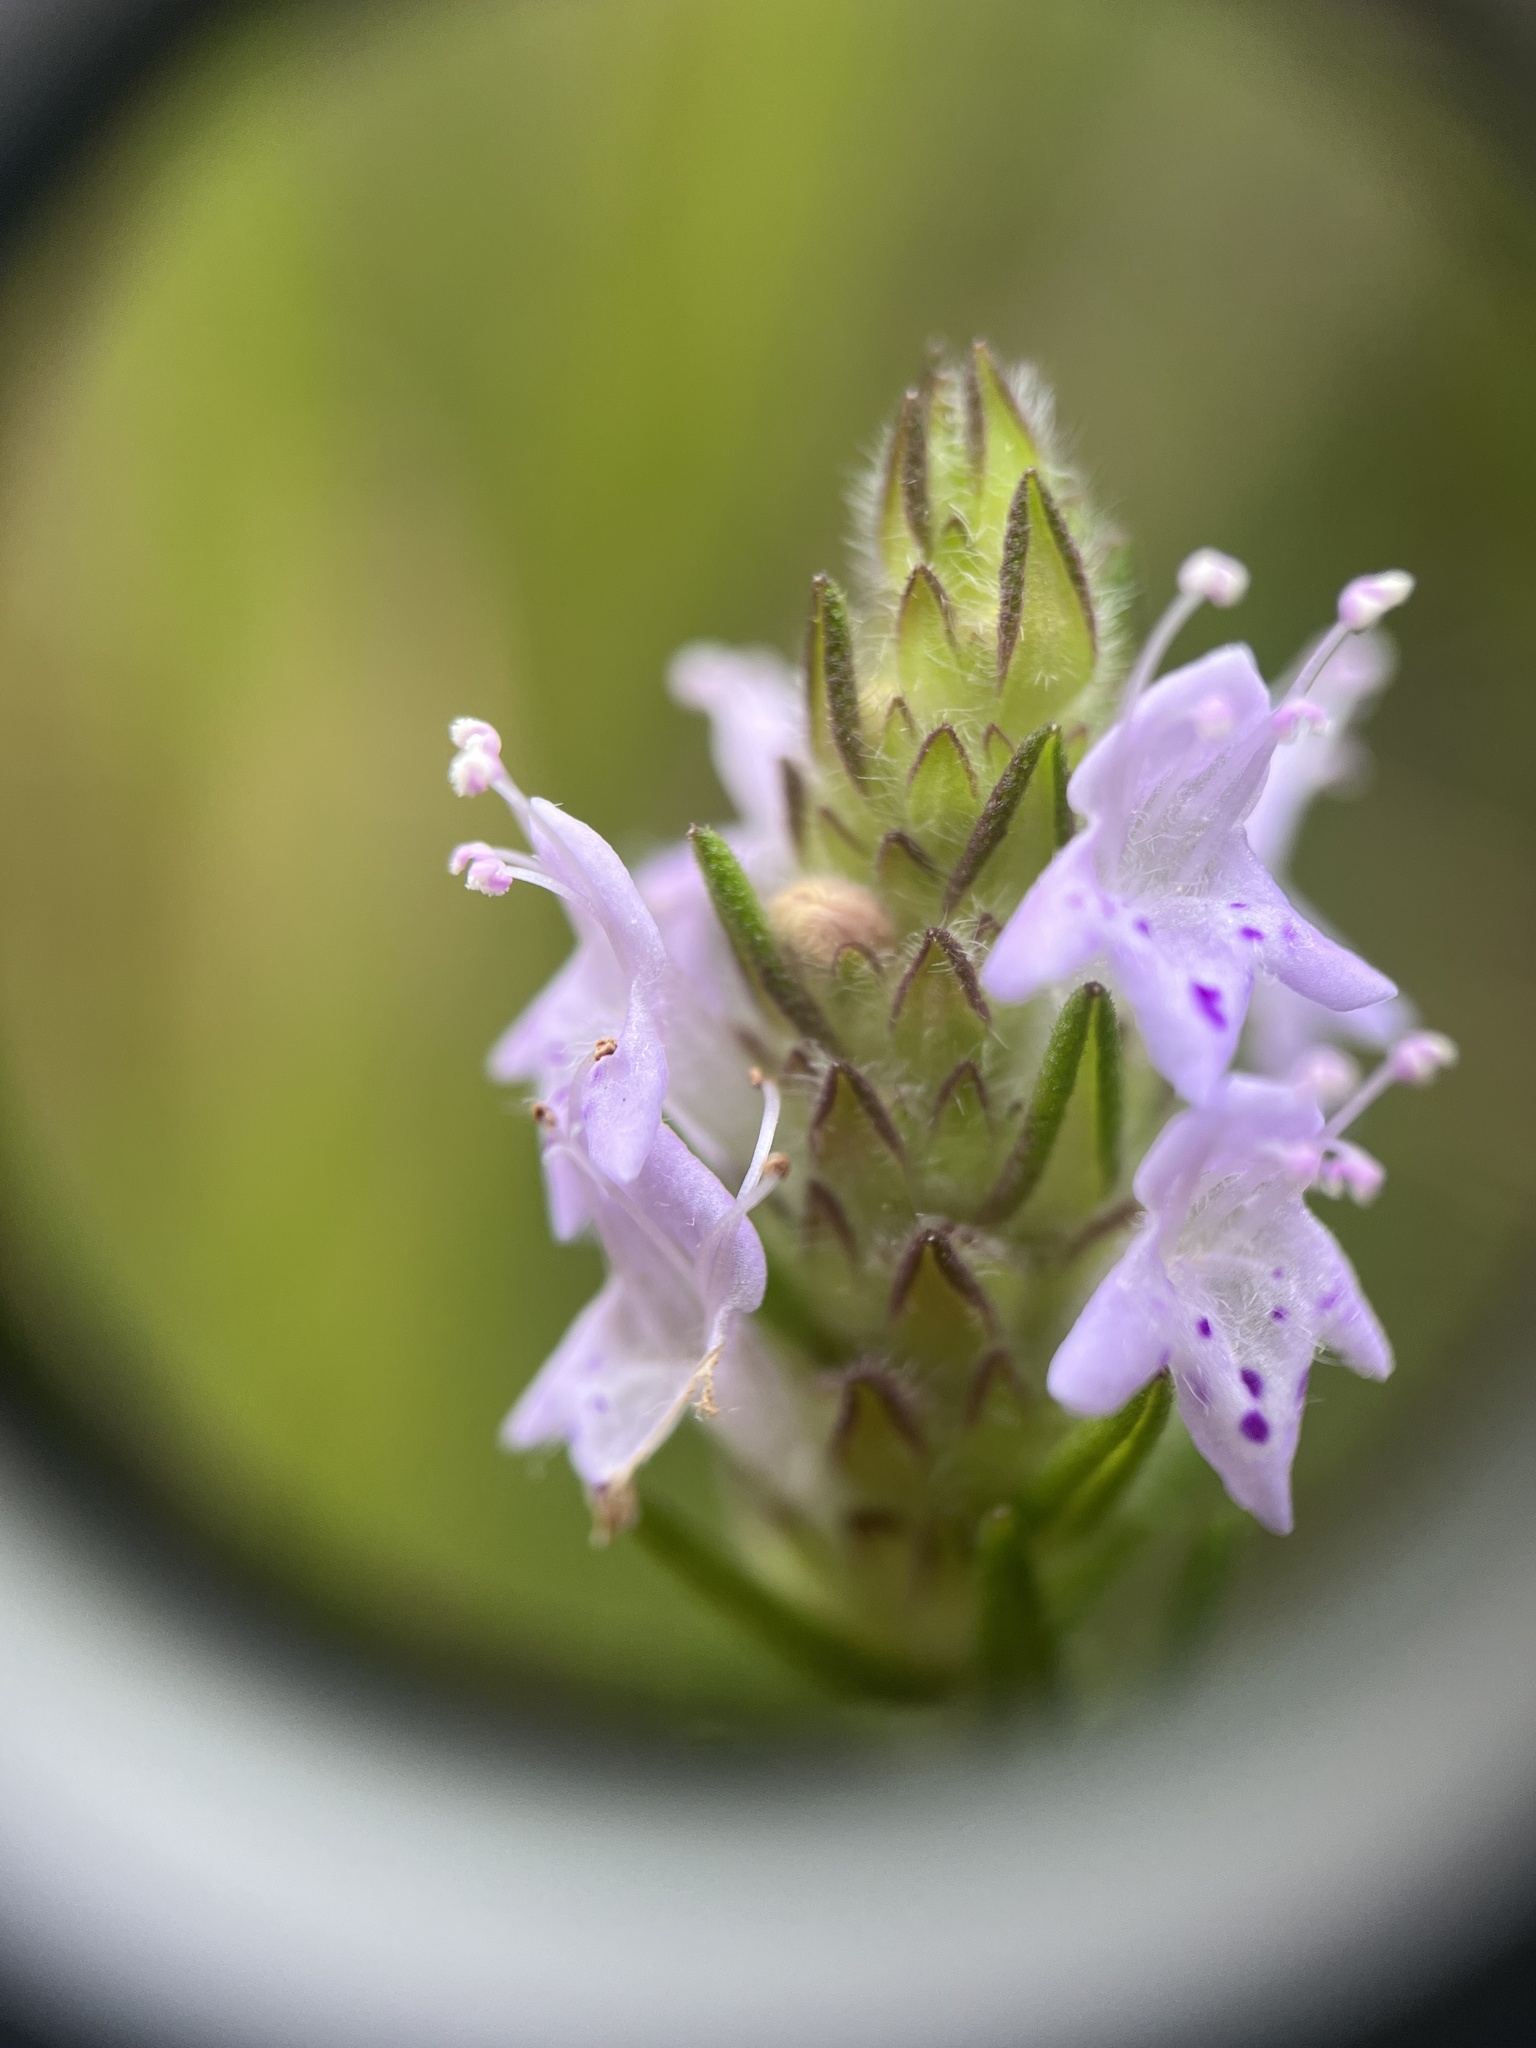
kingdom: Plantae
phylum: Tracheophyta
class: Magnoliopsida
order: Lamiales
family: Lamiaceae
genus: Piloblephis
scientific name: Piloblephis rigida
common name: Wild pennyroyal
